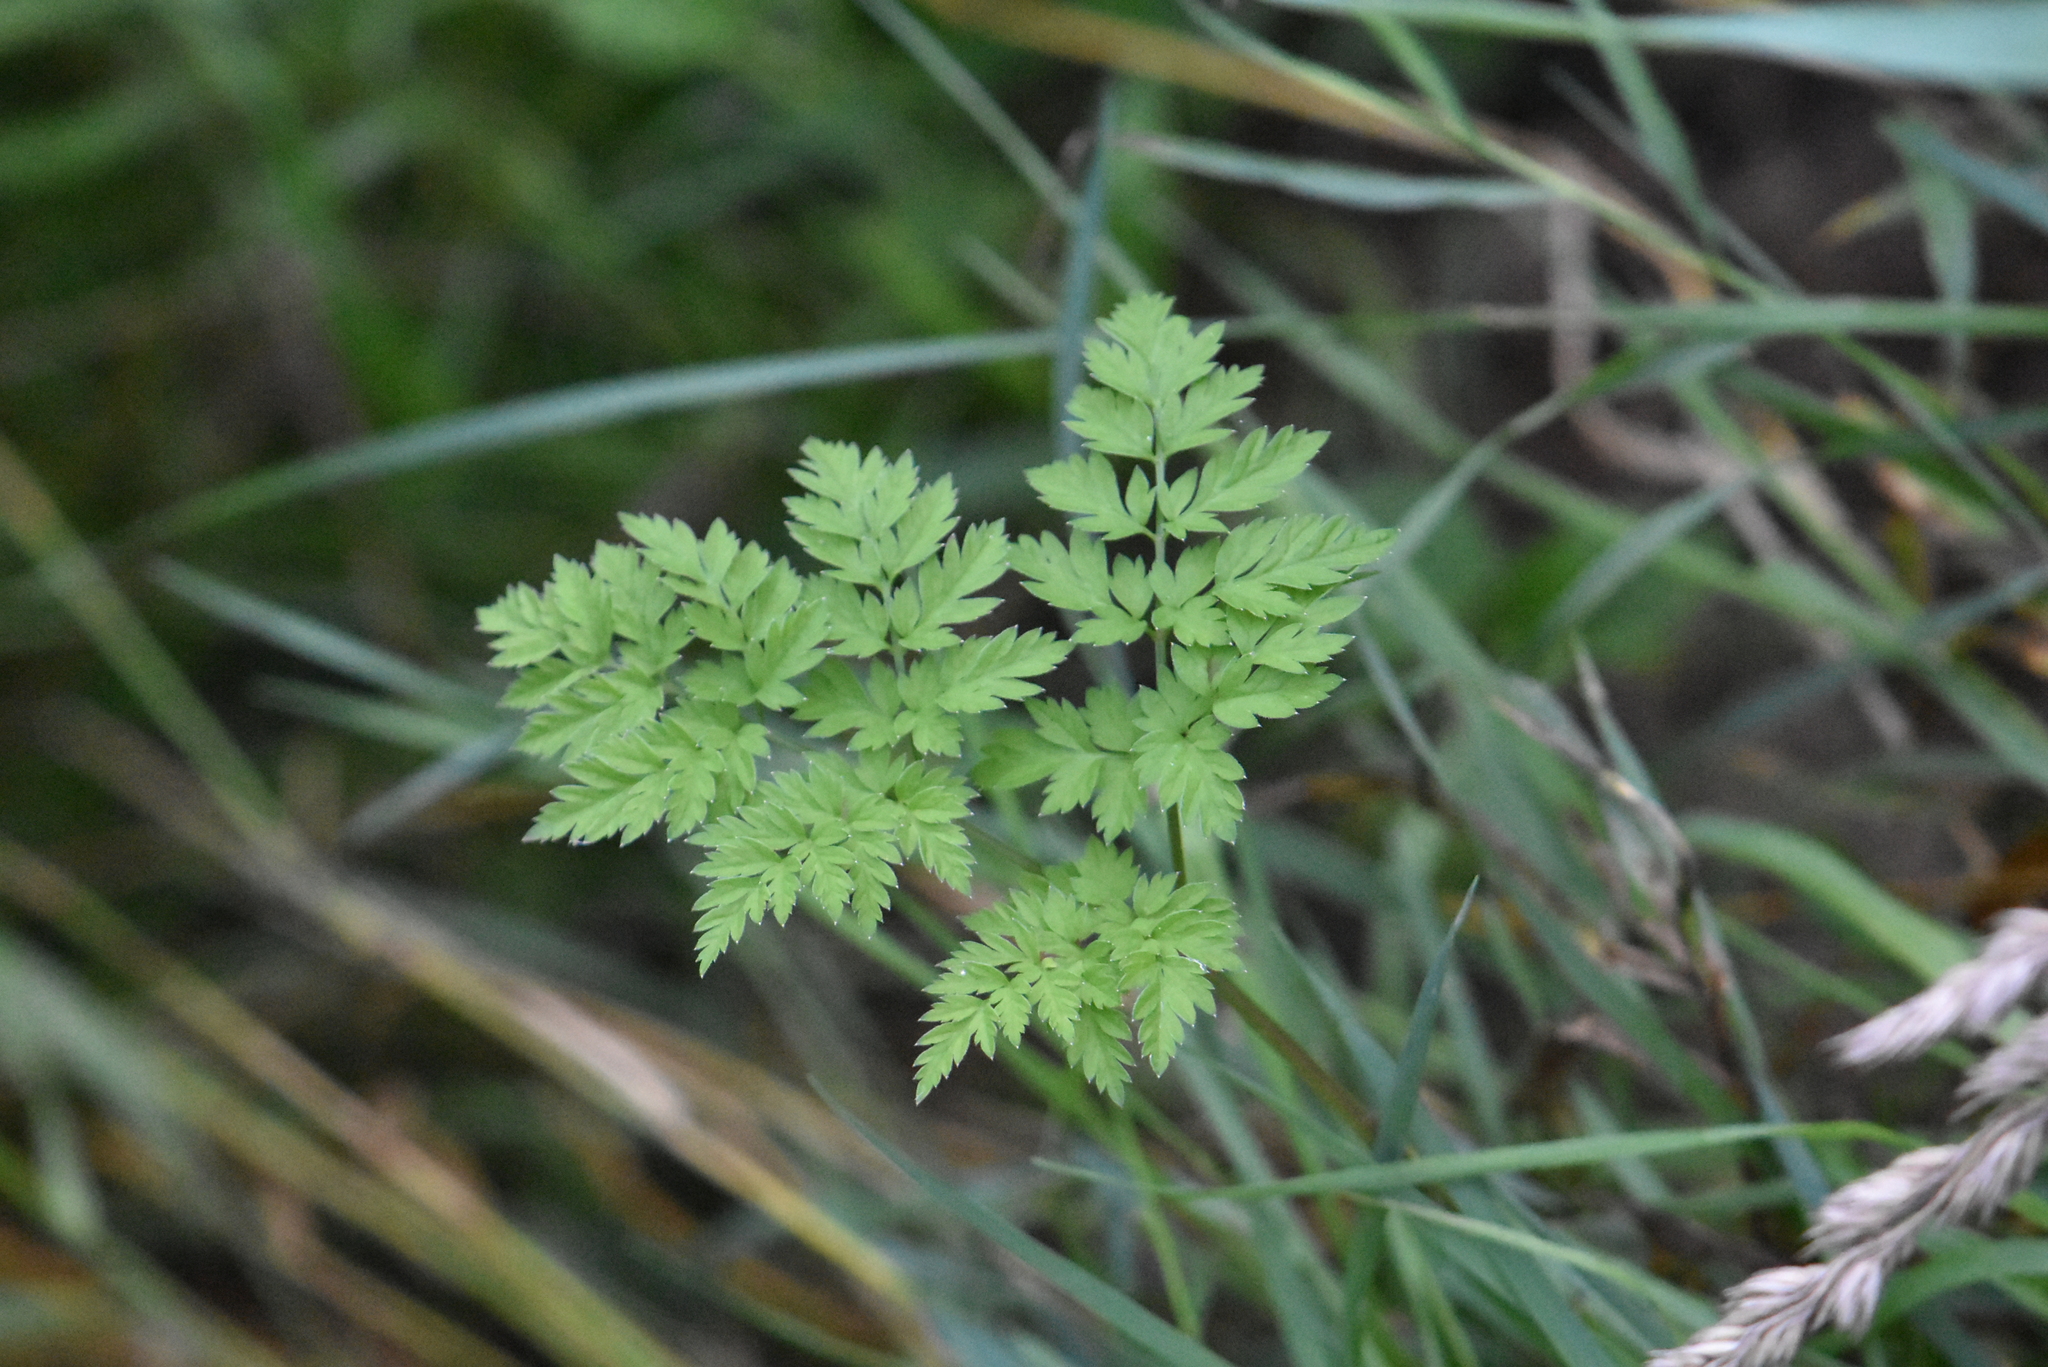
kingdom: Plantae
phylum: Tracheophyta
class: Magnoliopsida
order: Apiales
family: Apiaceae
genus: Anthriscus
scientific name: Anthriscus sylvestris
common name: Cow parsley
